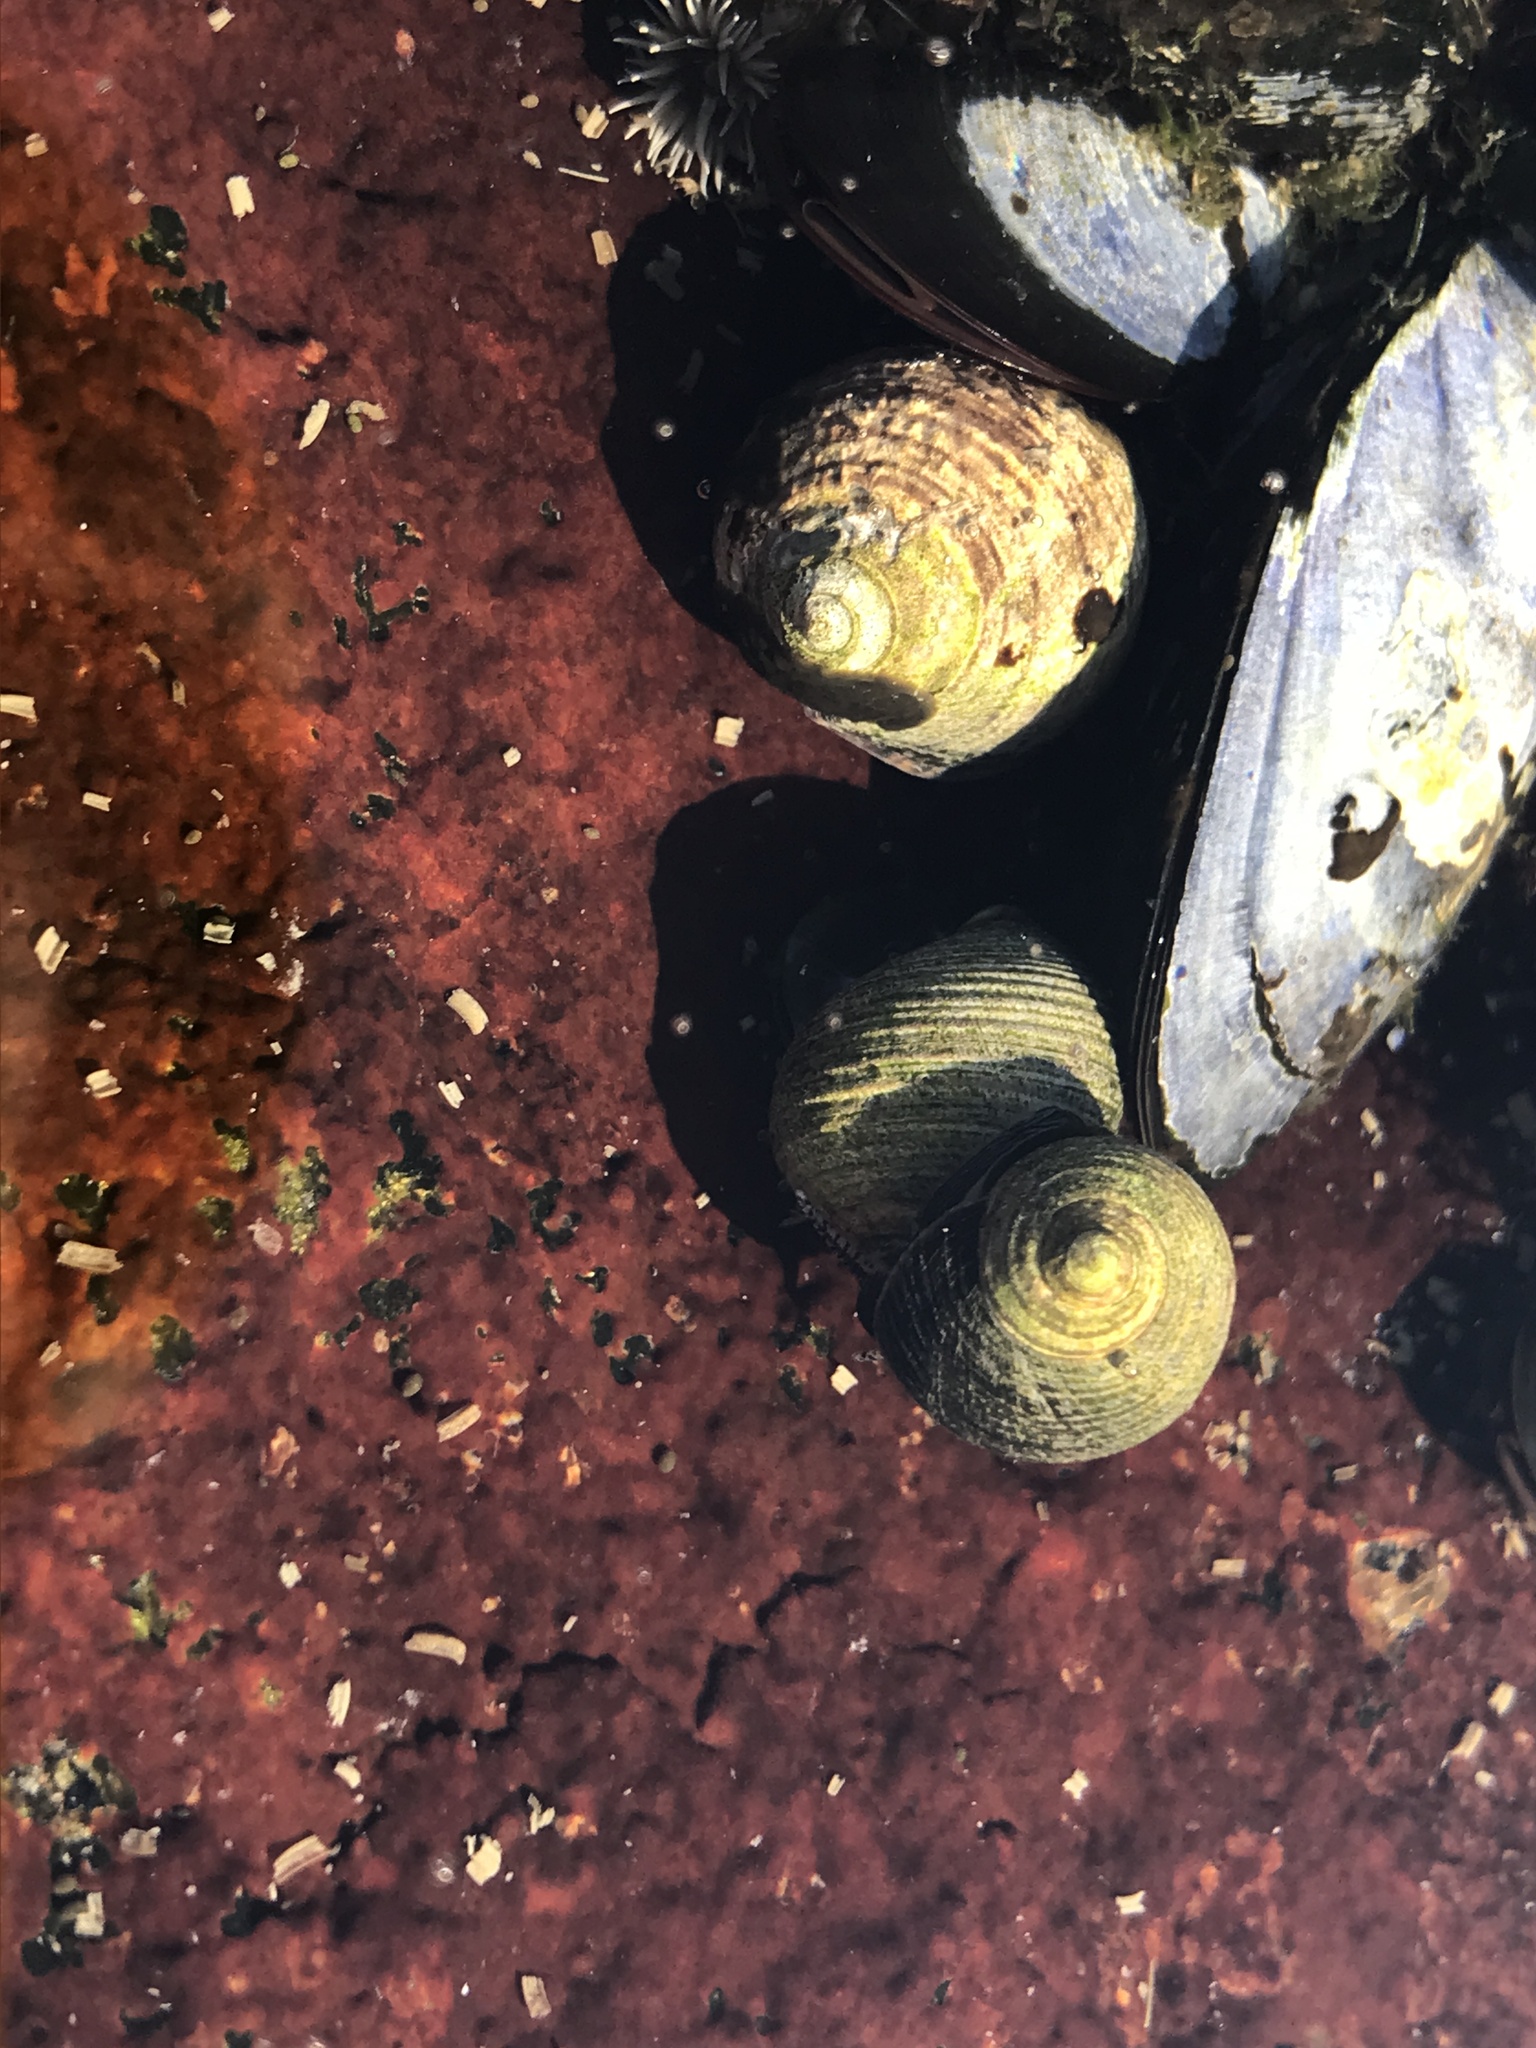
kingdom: Animalia
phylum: Mollusca
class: Gastropoda
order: Littorinimorpha
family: Littorinidae
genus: Littorina
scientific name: Littorina littorea
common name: Common periwinkle
